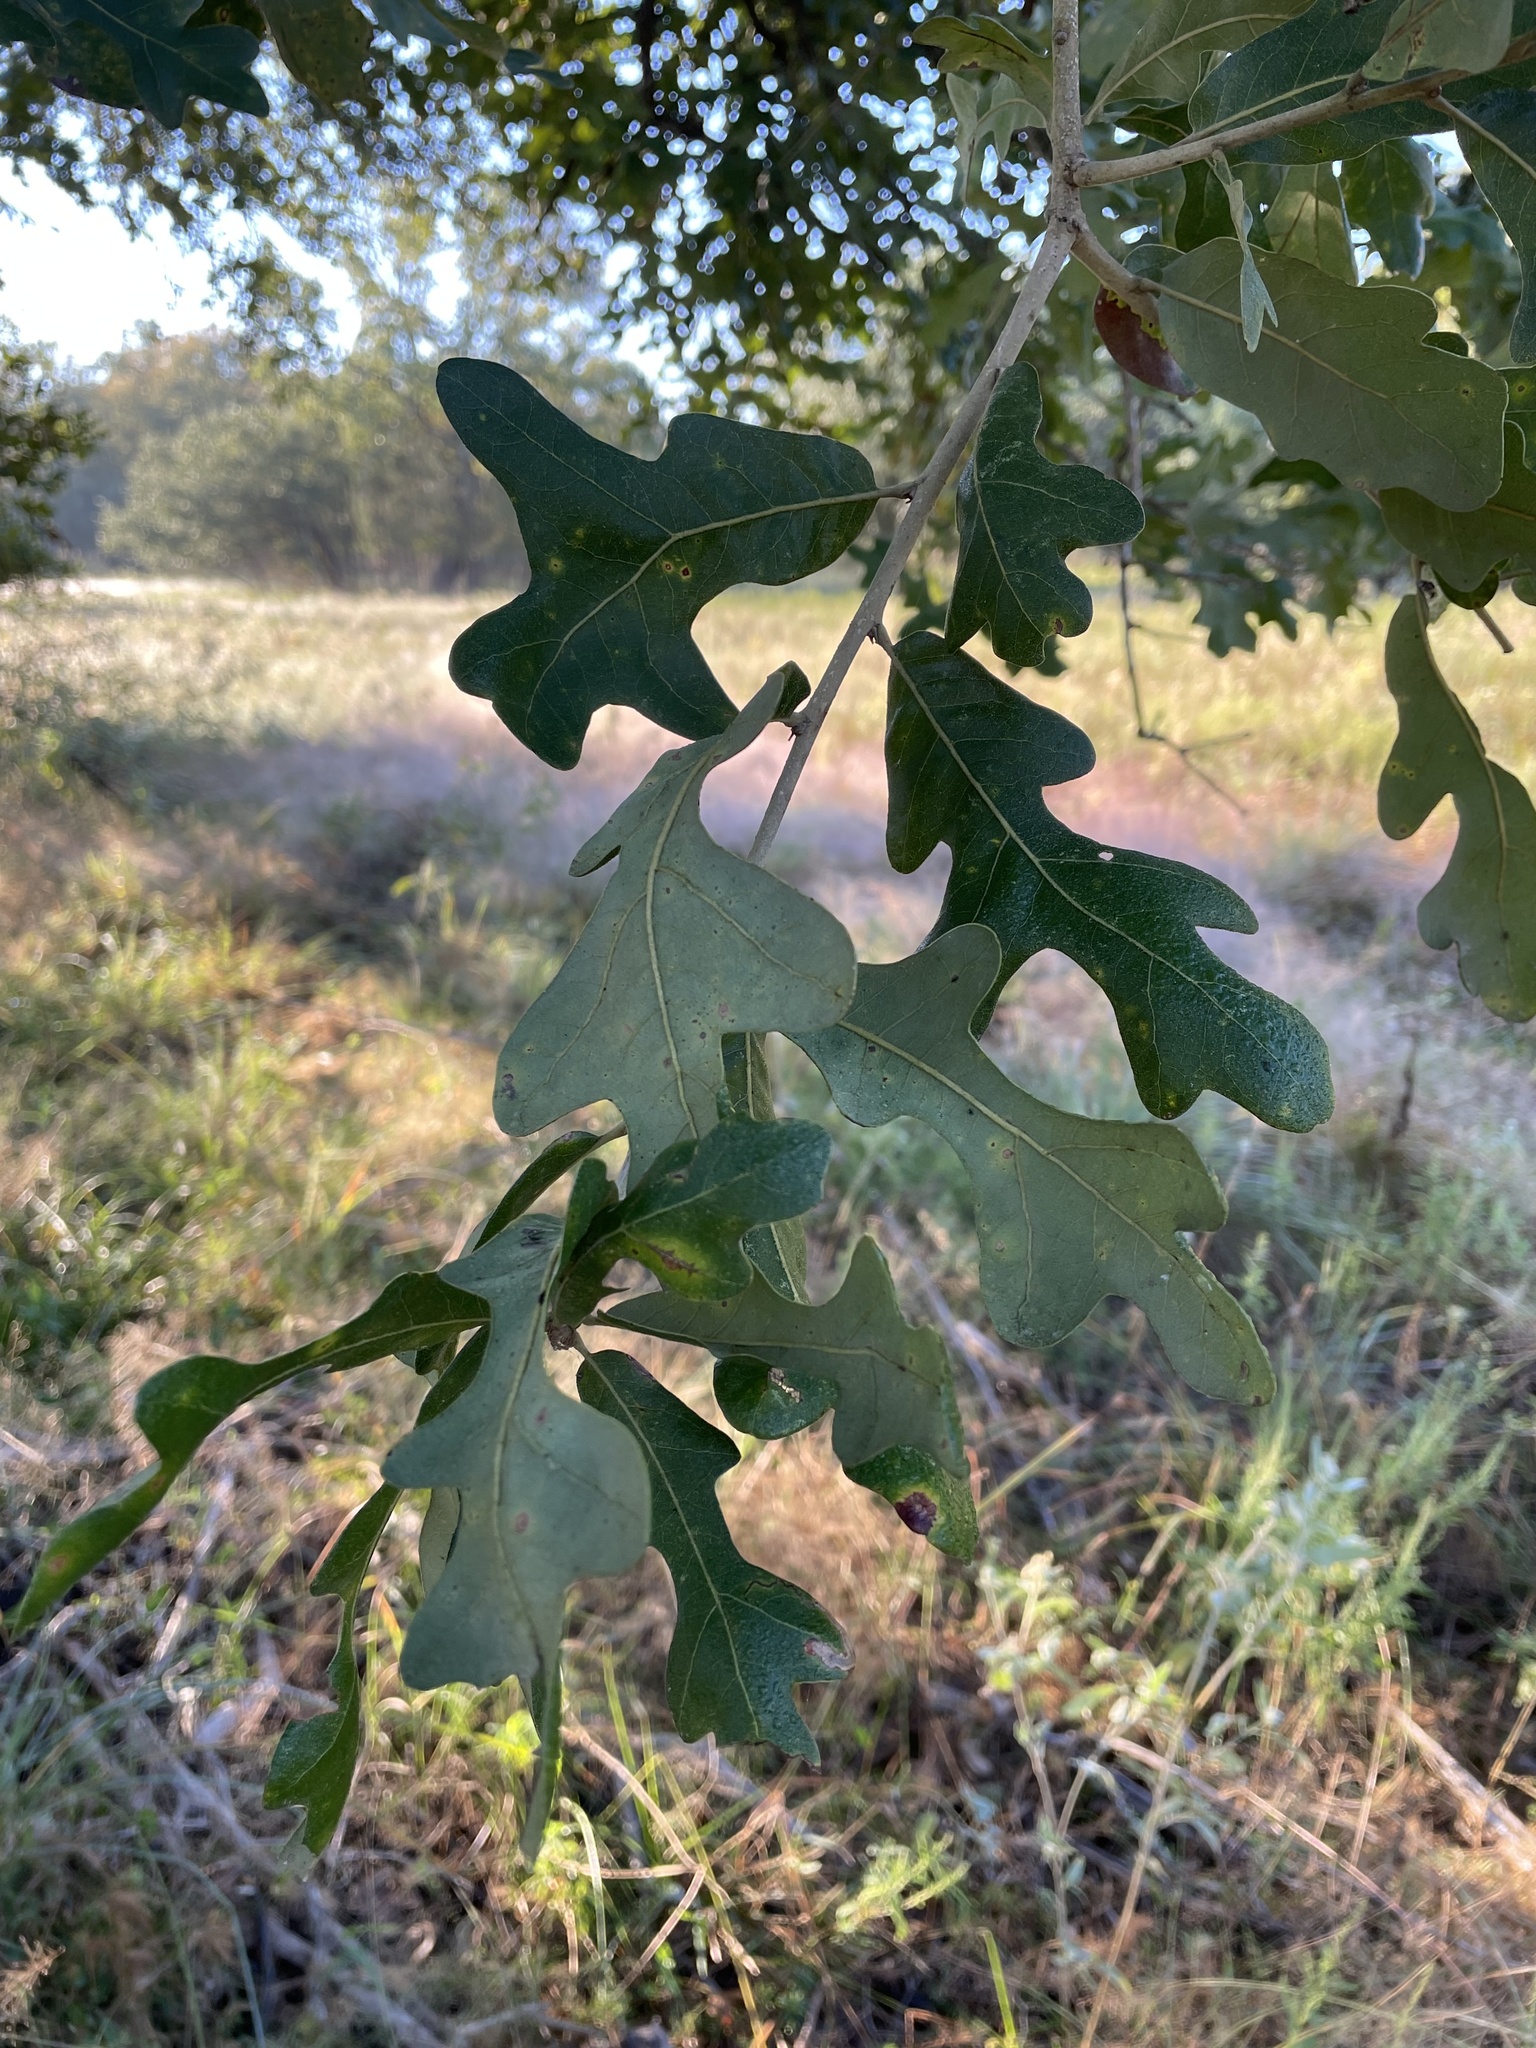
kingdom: Plantae
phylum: Tracheophyta
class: Magnoliopsida
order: Fagales
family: Fagaceae
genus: Quercus
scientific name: Quercus stellata
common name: Post oak
